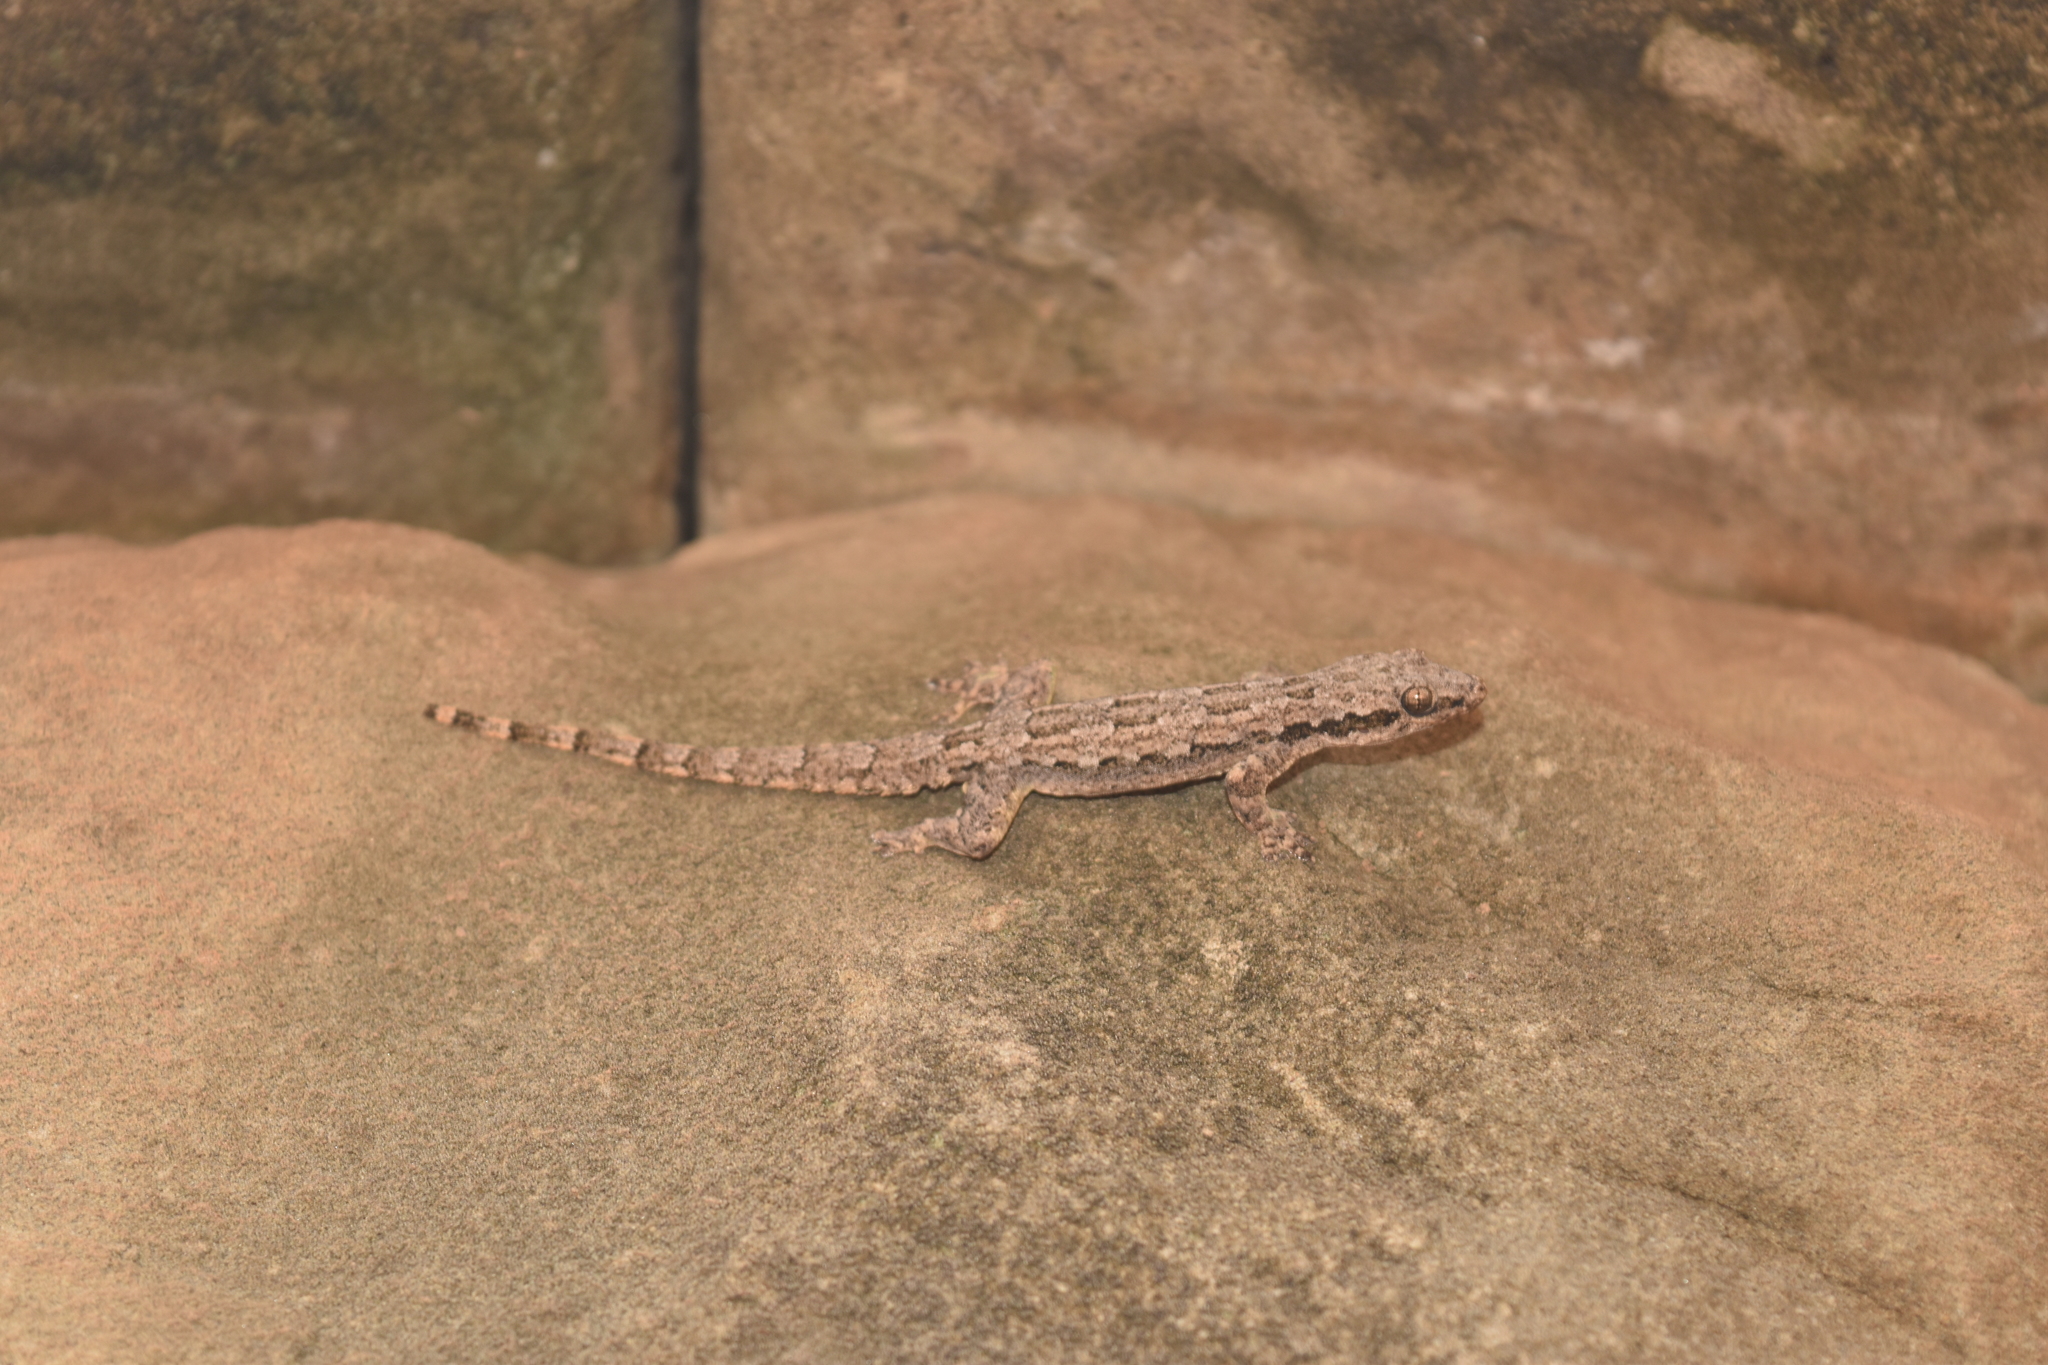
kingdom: Animalia
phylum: Chordata
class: Squamata
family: Gekkonidae
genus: Hemidactylus
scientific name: Hemidactylus platyurus
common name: Flat-tailed house gecko
